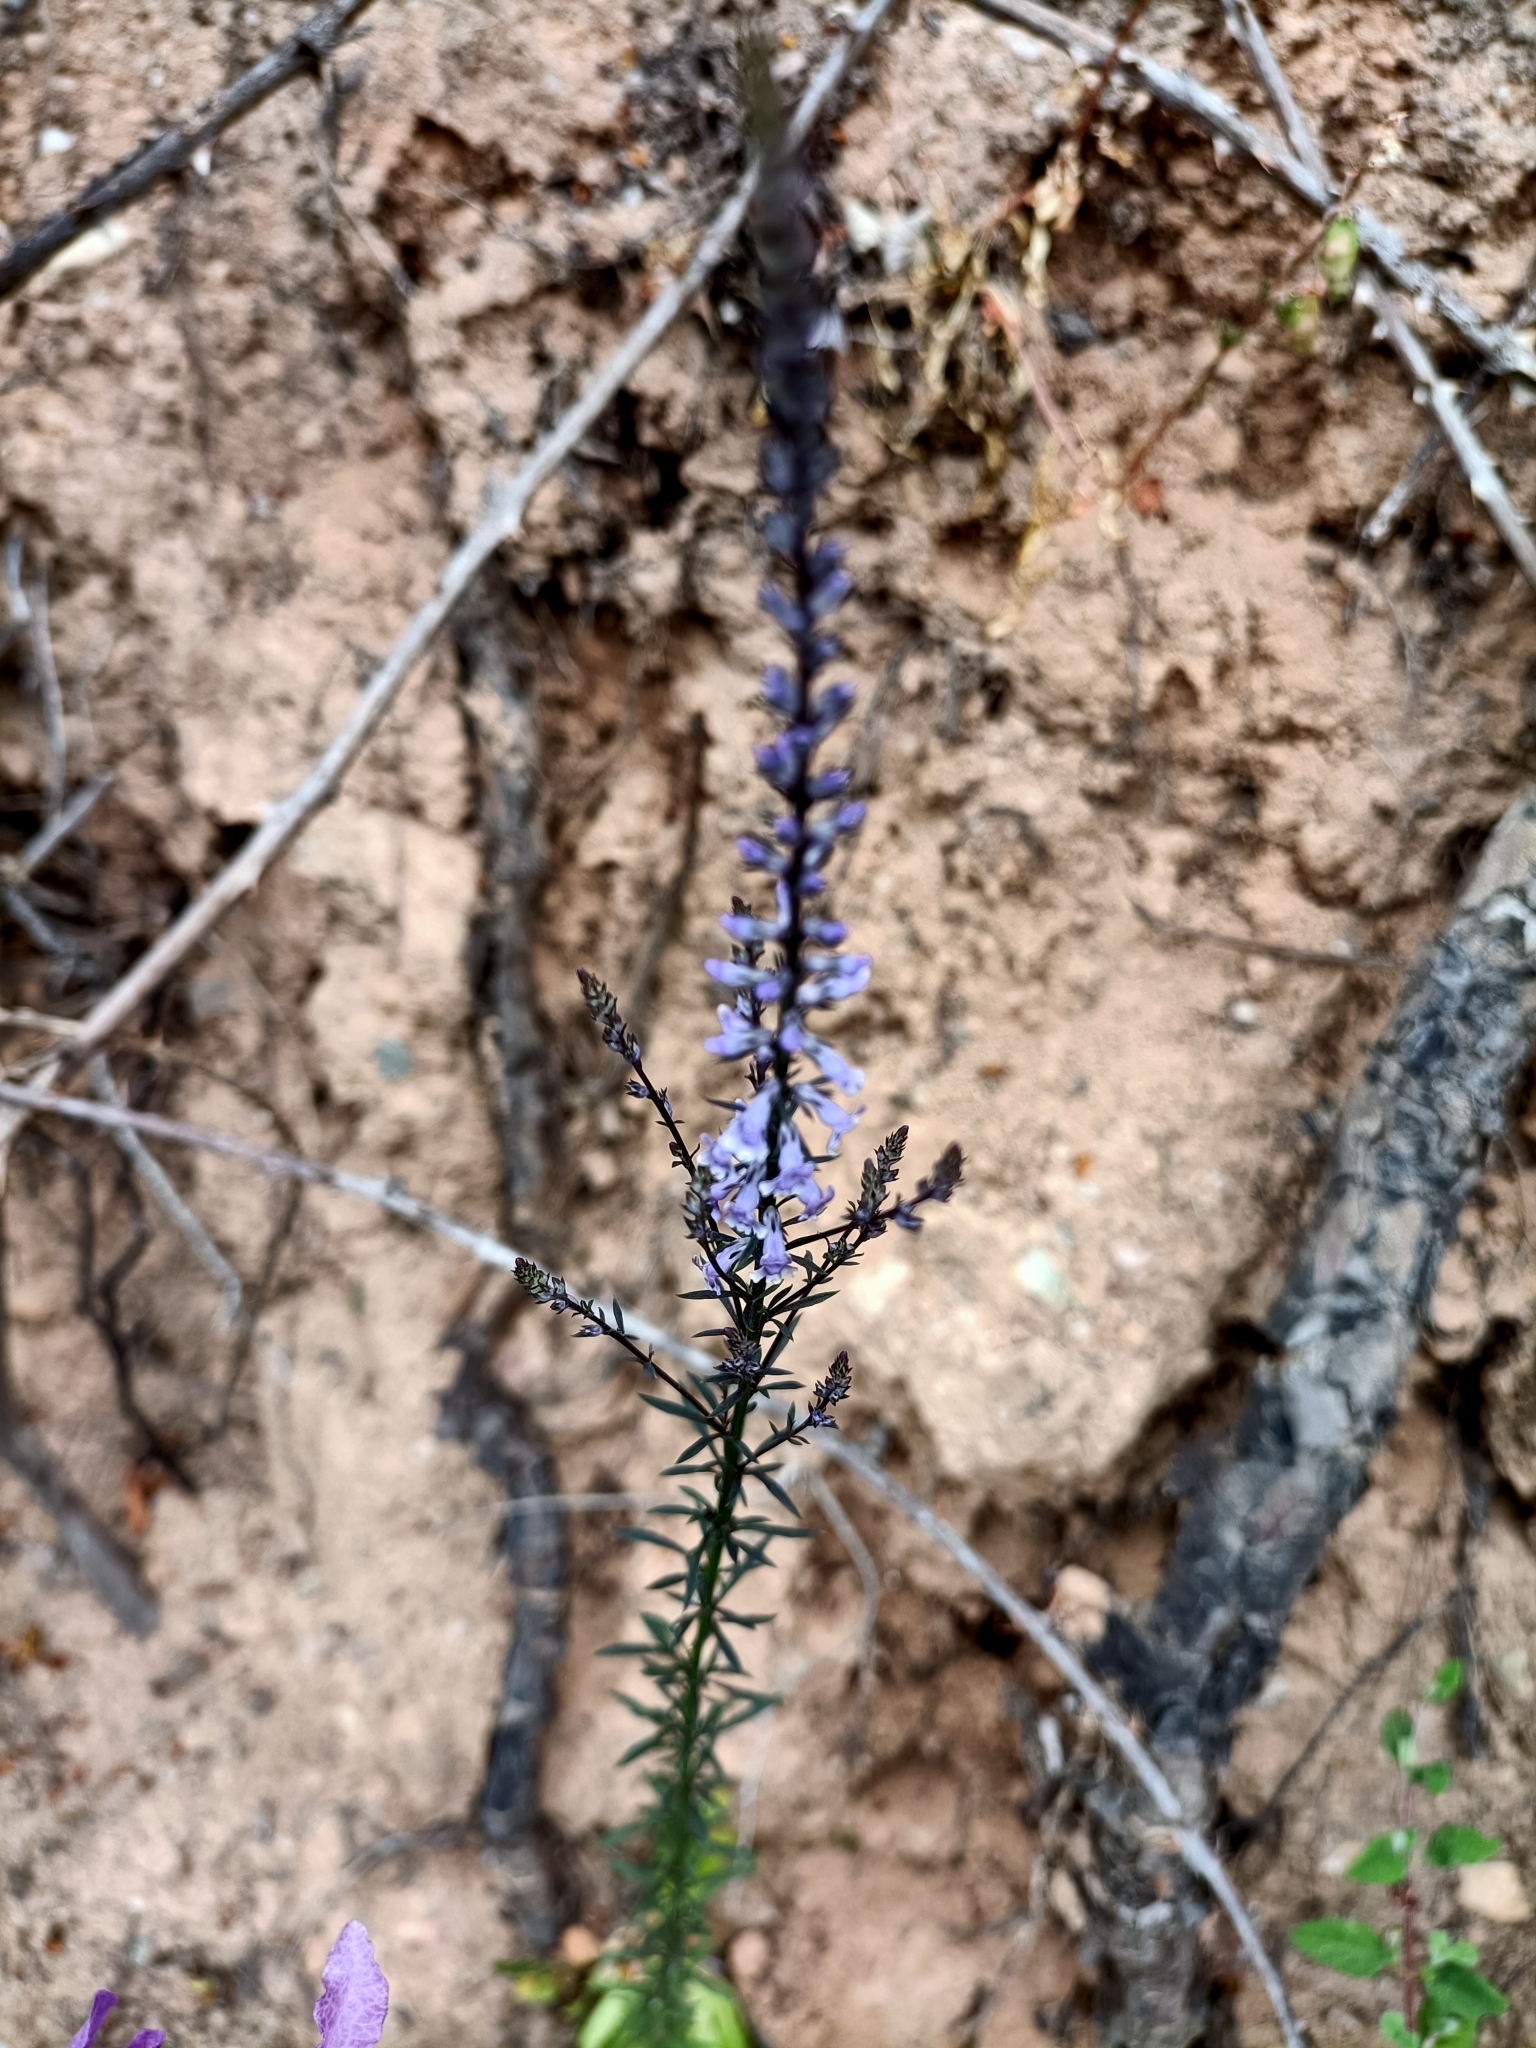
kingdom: Plantae
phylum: Tracheophyta
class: Magnoliopsida
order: Lamiales
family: Plantaginaceae
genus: Anarrhinum
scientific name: Anarrhinum bellidifolium
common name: Daisy-leaved toadflax
